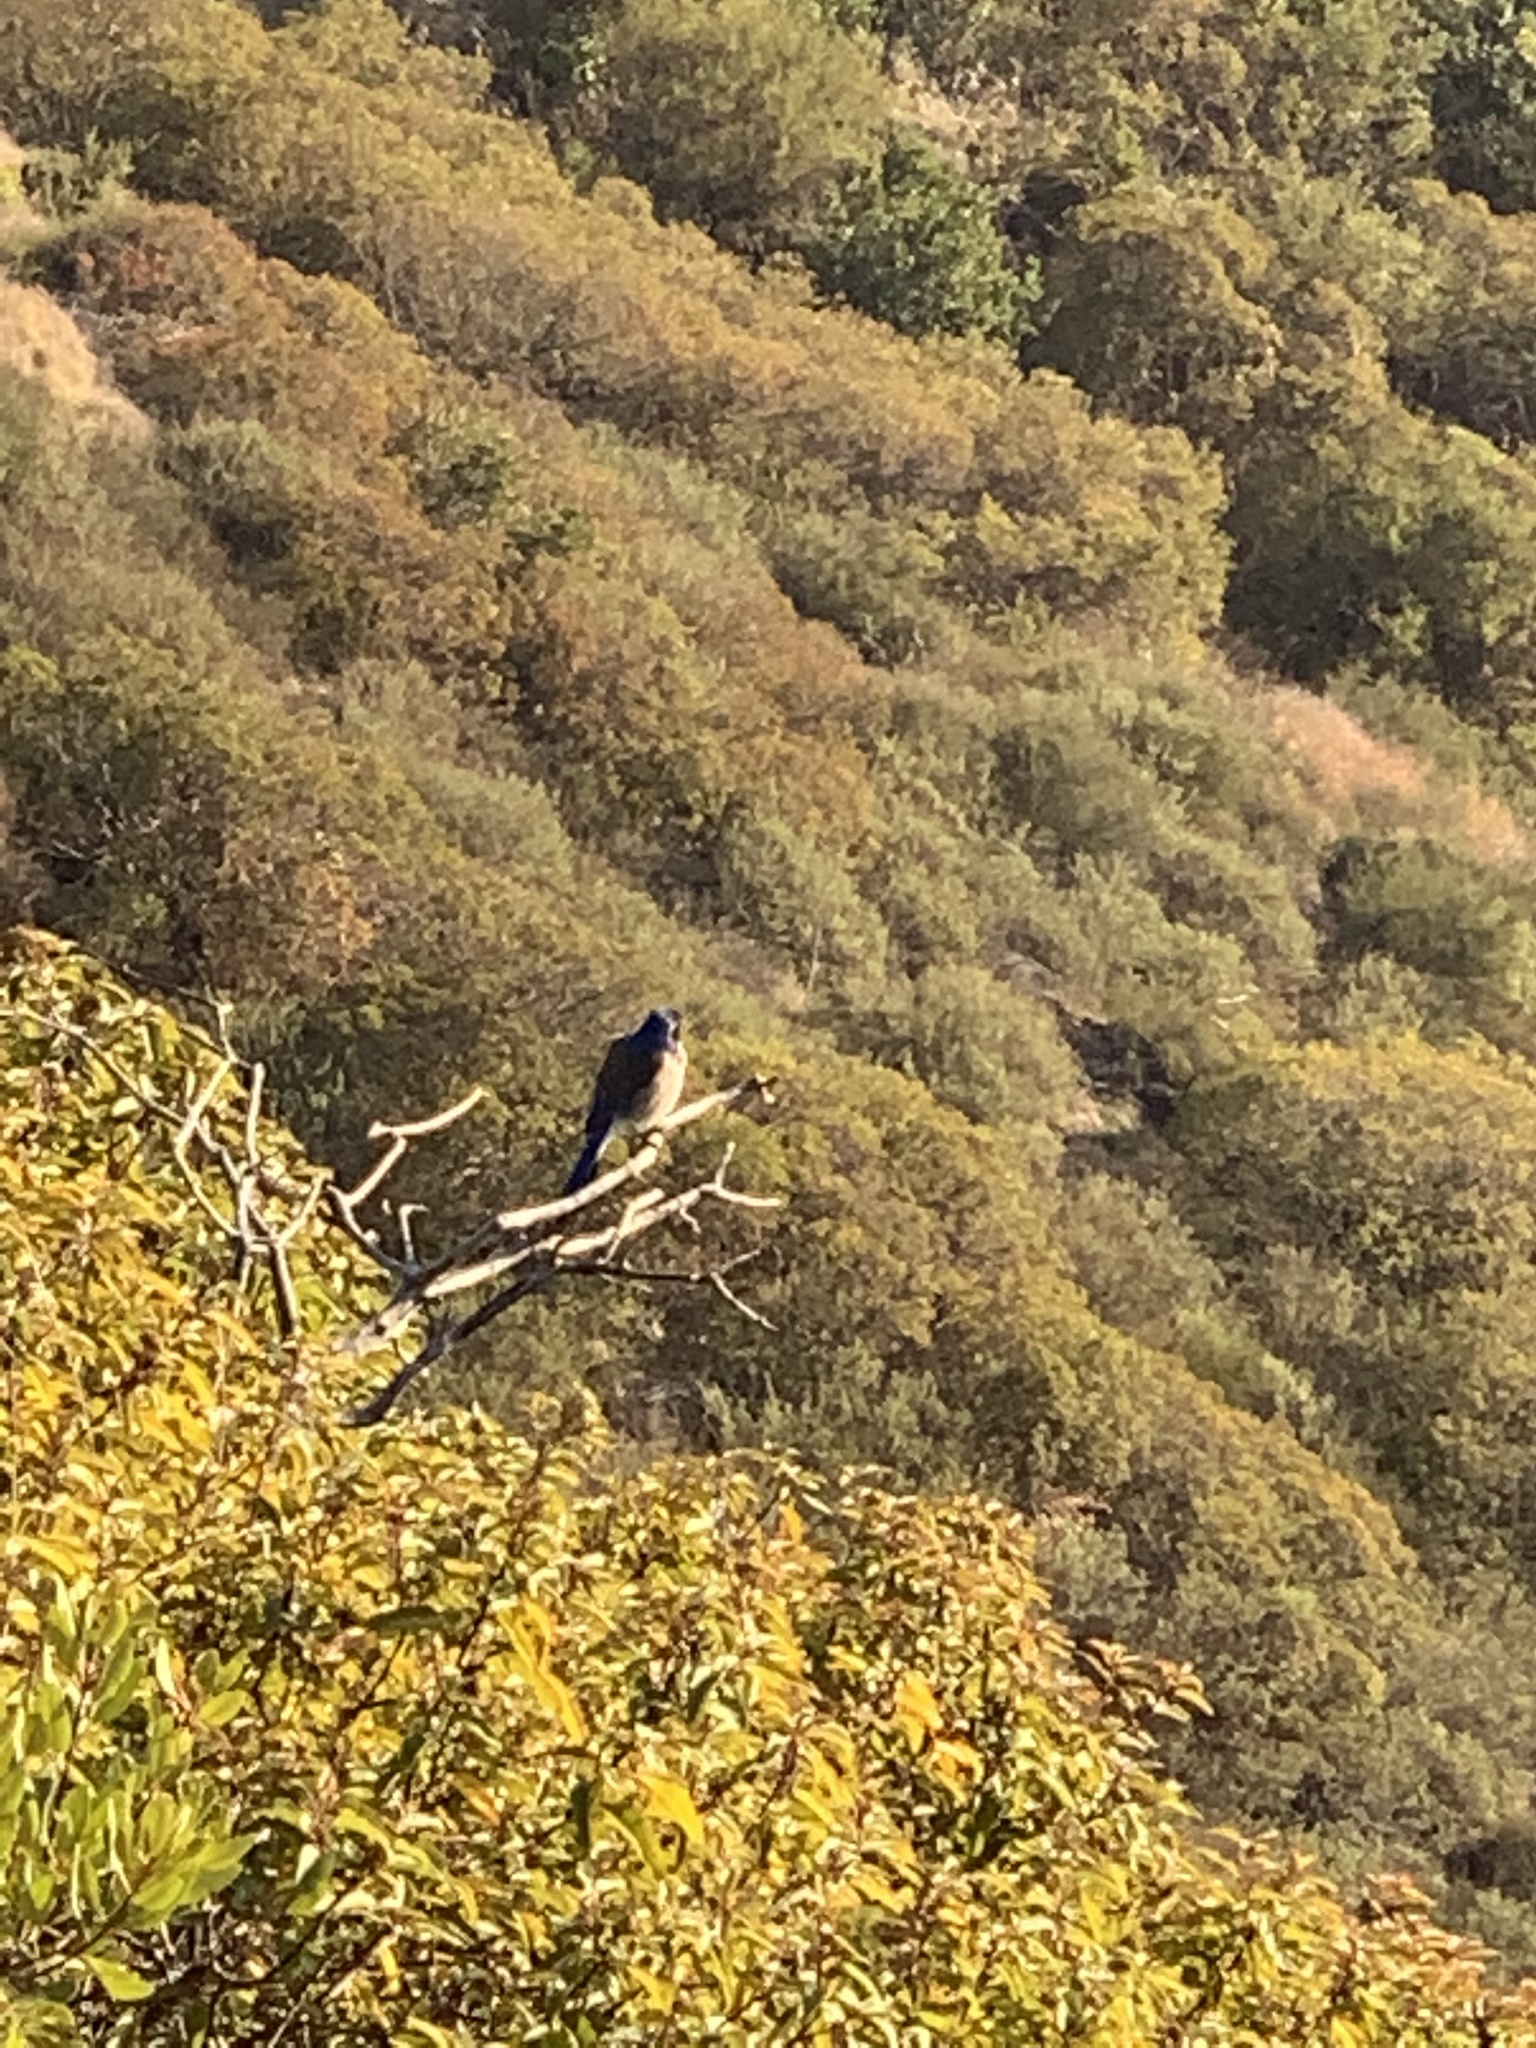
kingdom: Animalia
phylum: Chordata
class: Aves
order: Passeriformes
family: Corvidae
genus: Aphelocoma
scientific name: Aphelocoma californica
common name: California scrub-jay
